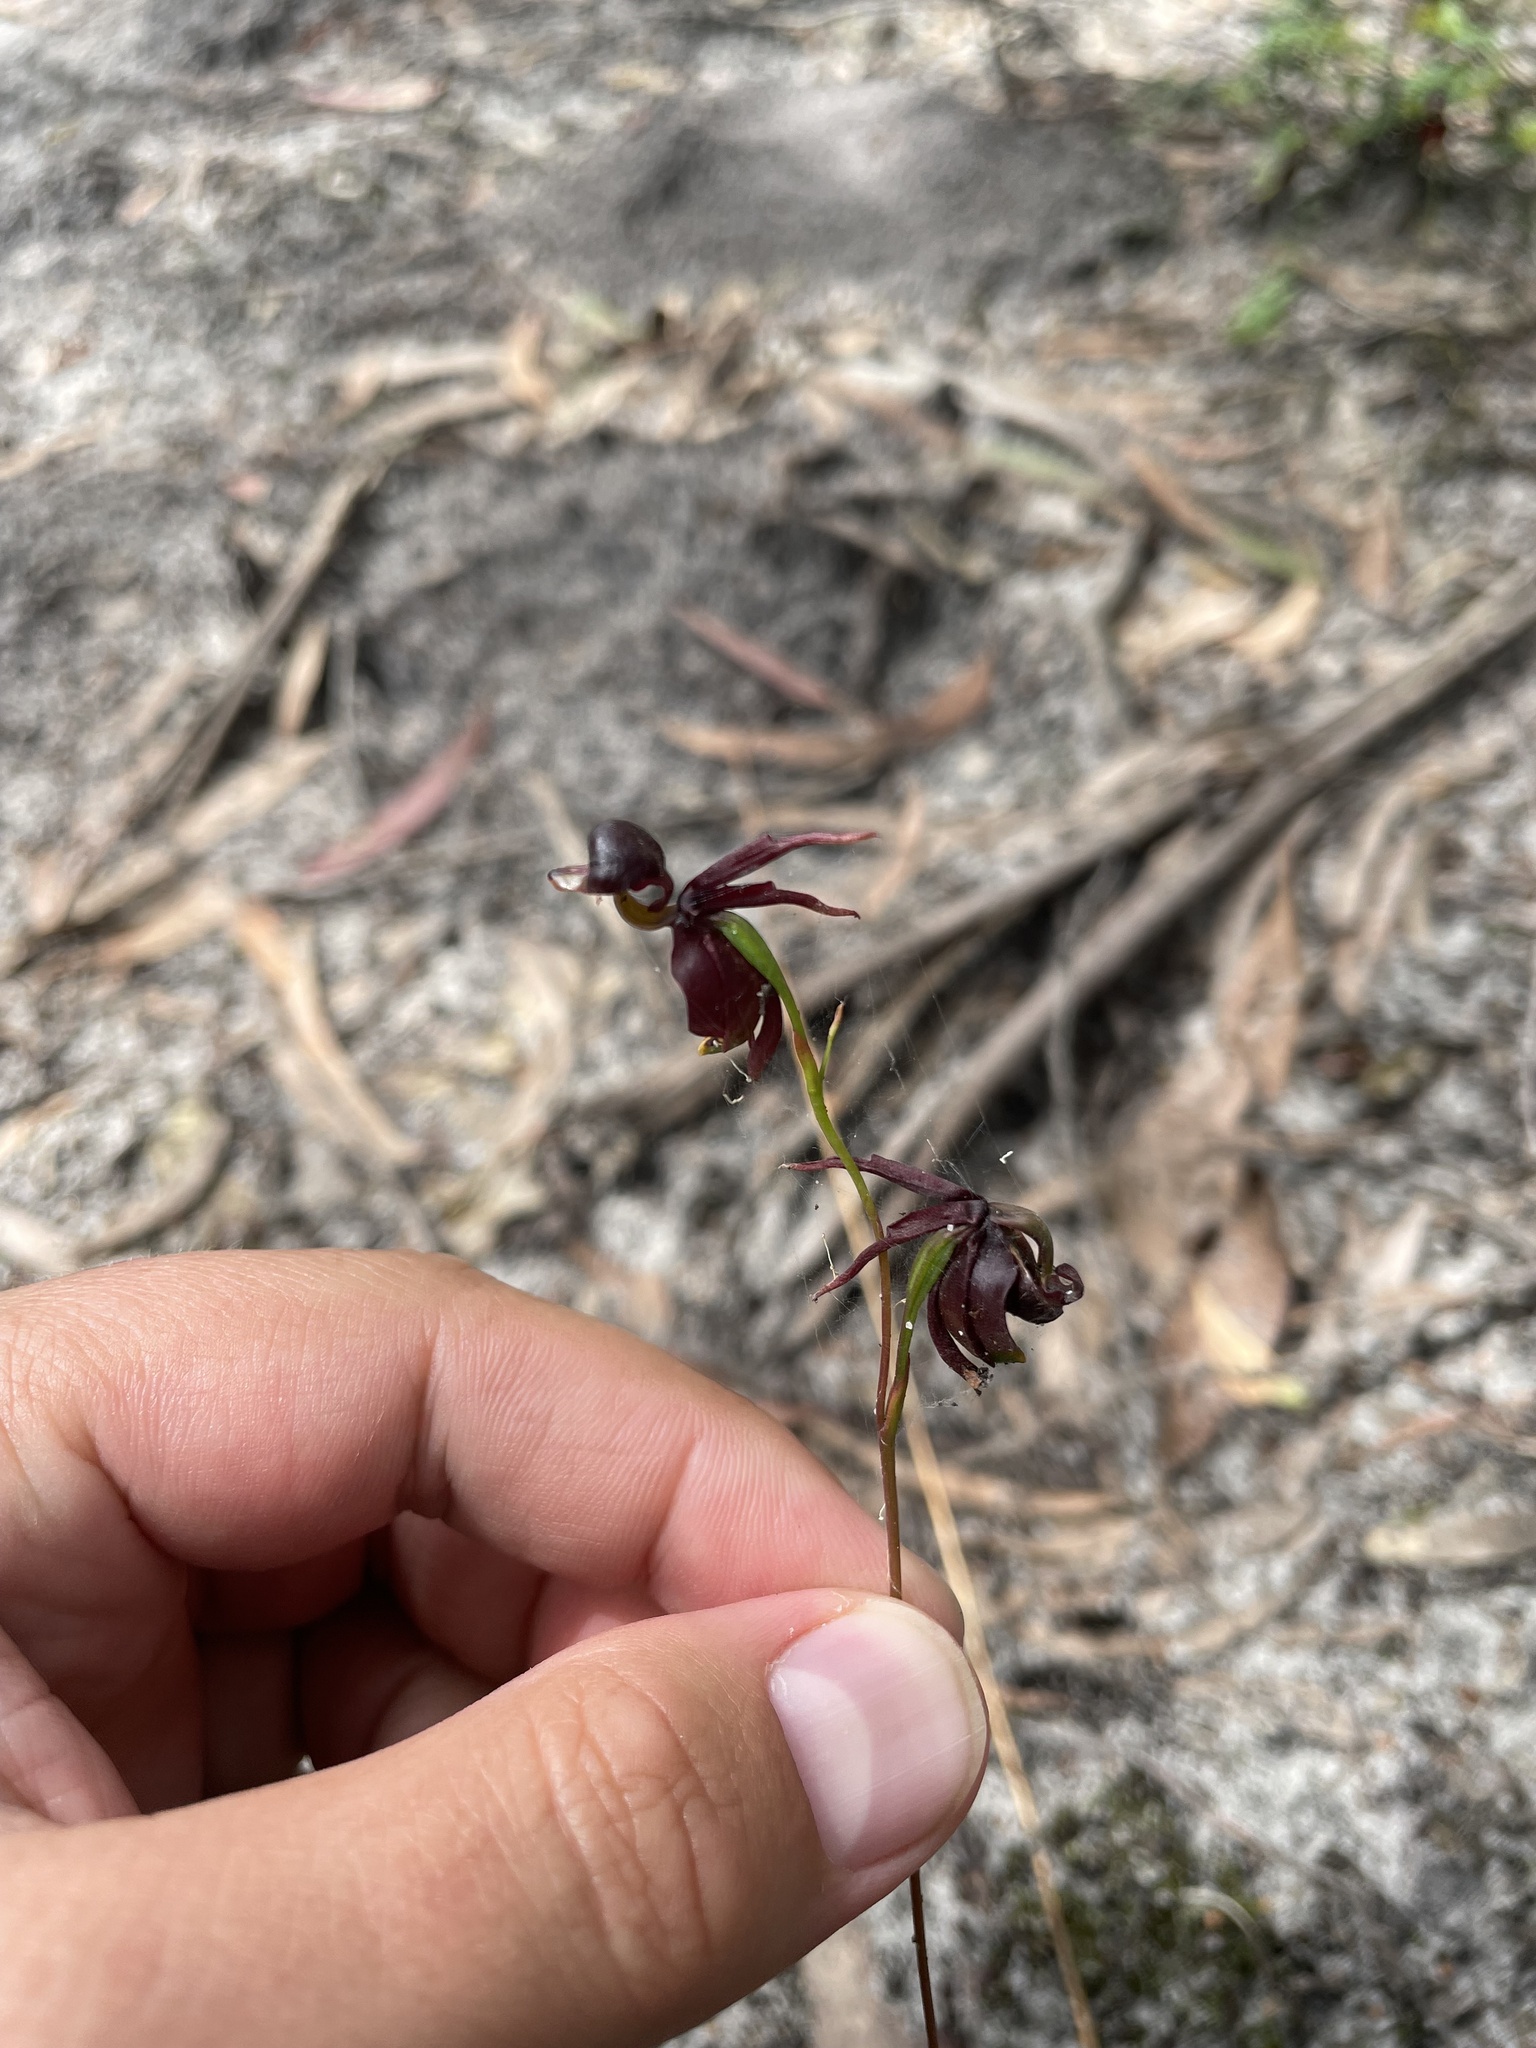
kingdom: Plantae
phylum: Tracheophyta
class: Liliopsida
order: Asparagales
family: Orchidaceae
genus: Caleana
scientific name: Caleana major
